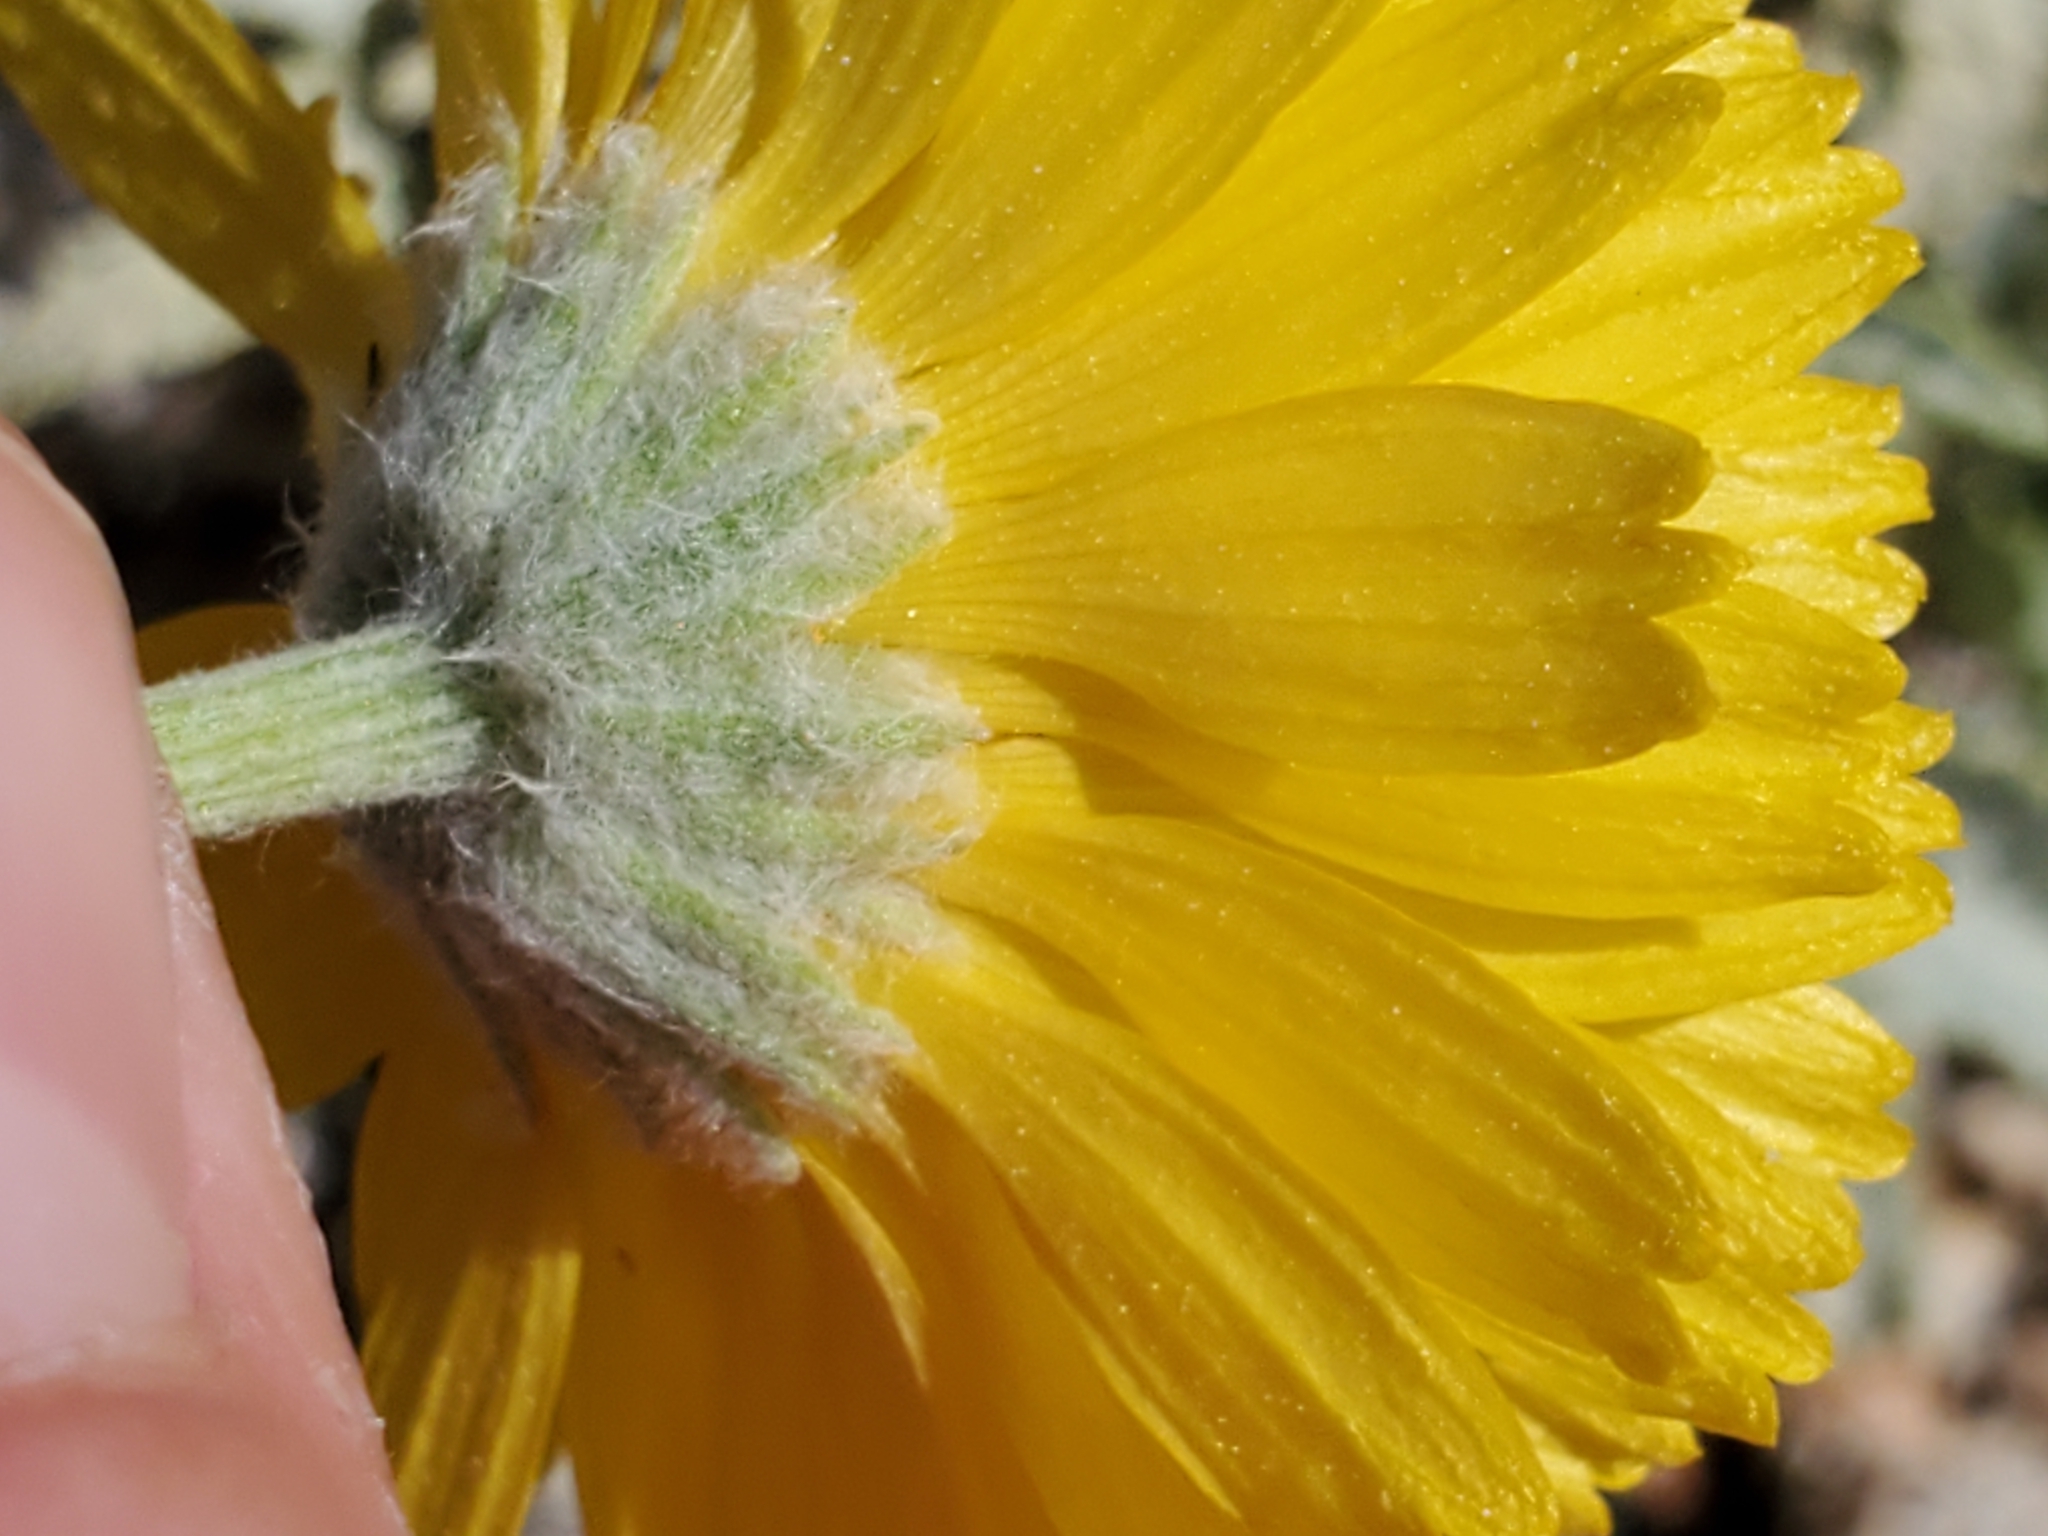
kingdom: Plantae
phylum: Tracheophyta
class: Magnoliopsida
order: Asterales
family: Asteraceae
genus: Baileya
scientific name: Baileya multiradiata
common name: Desert-marigold
